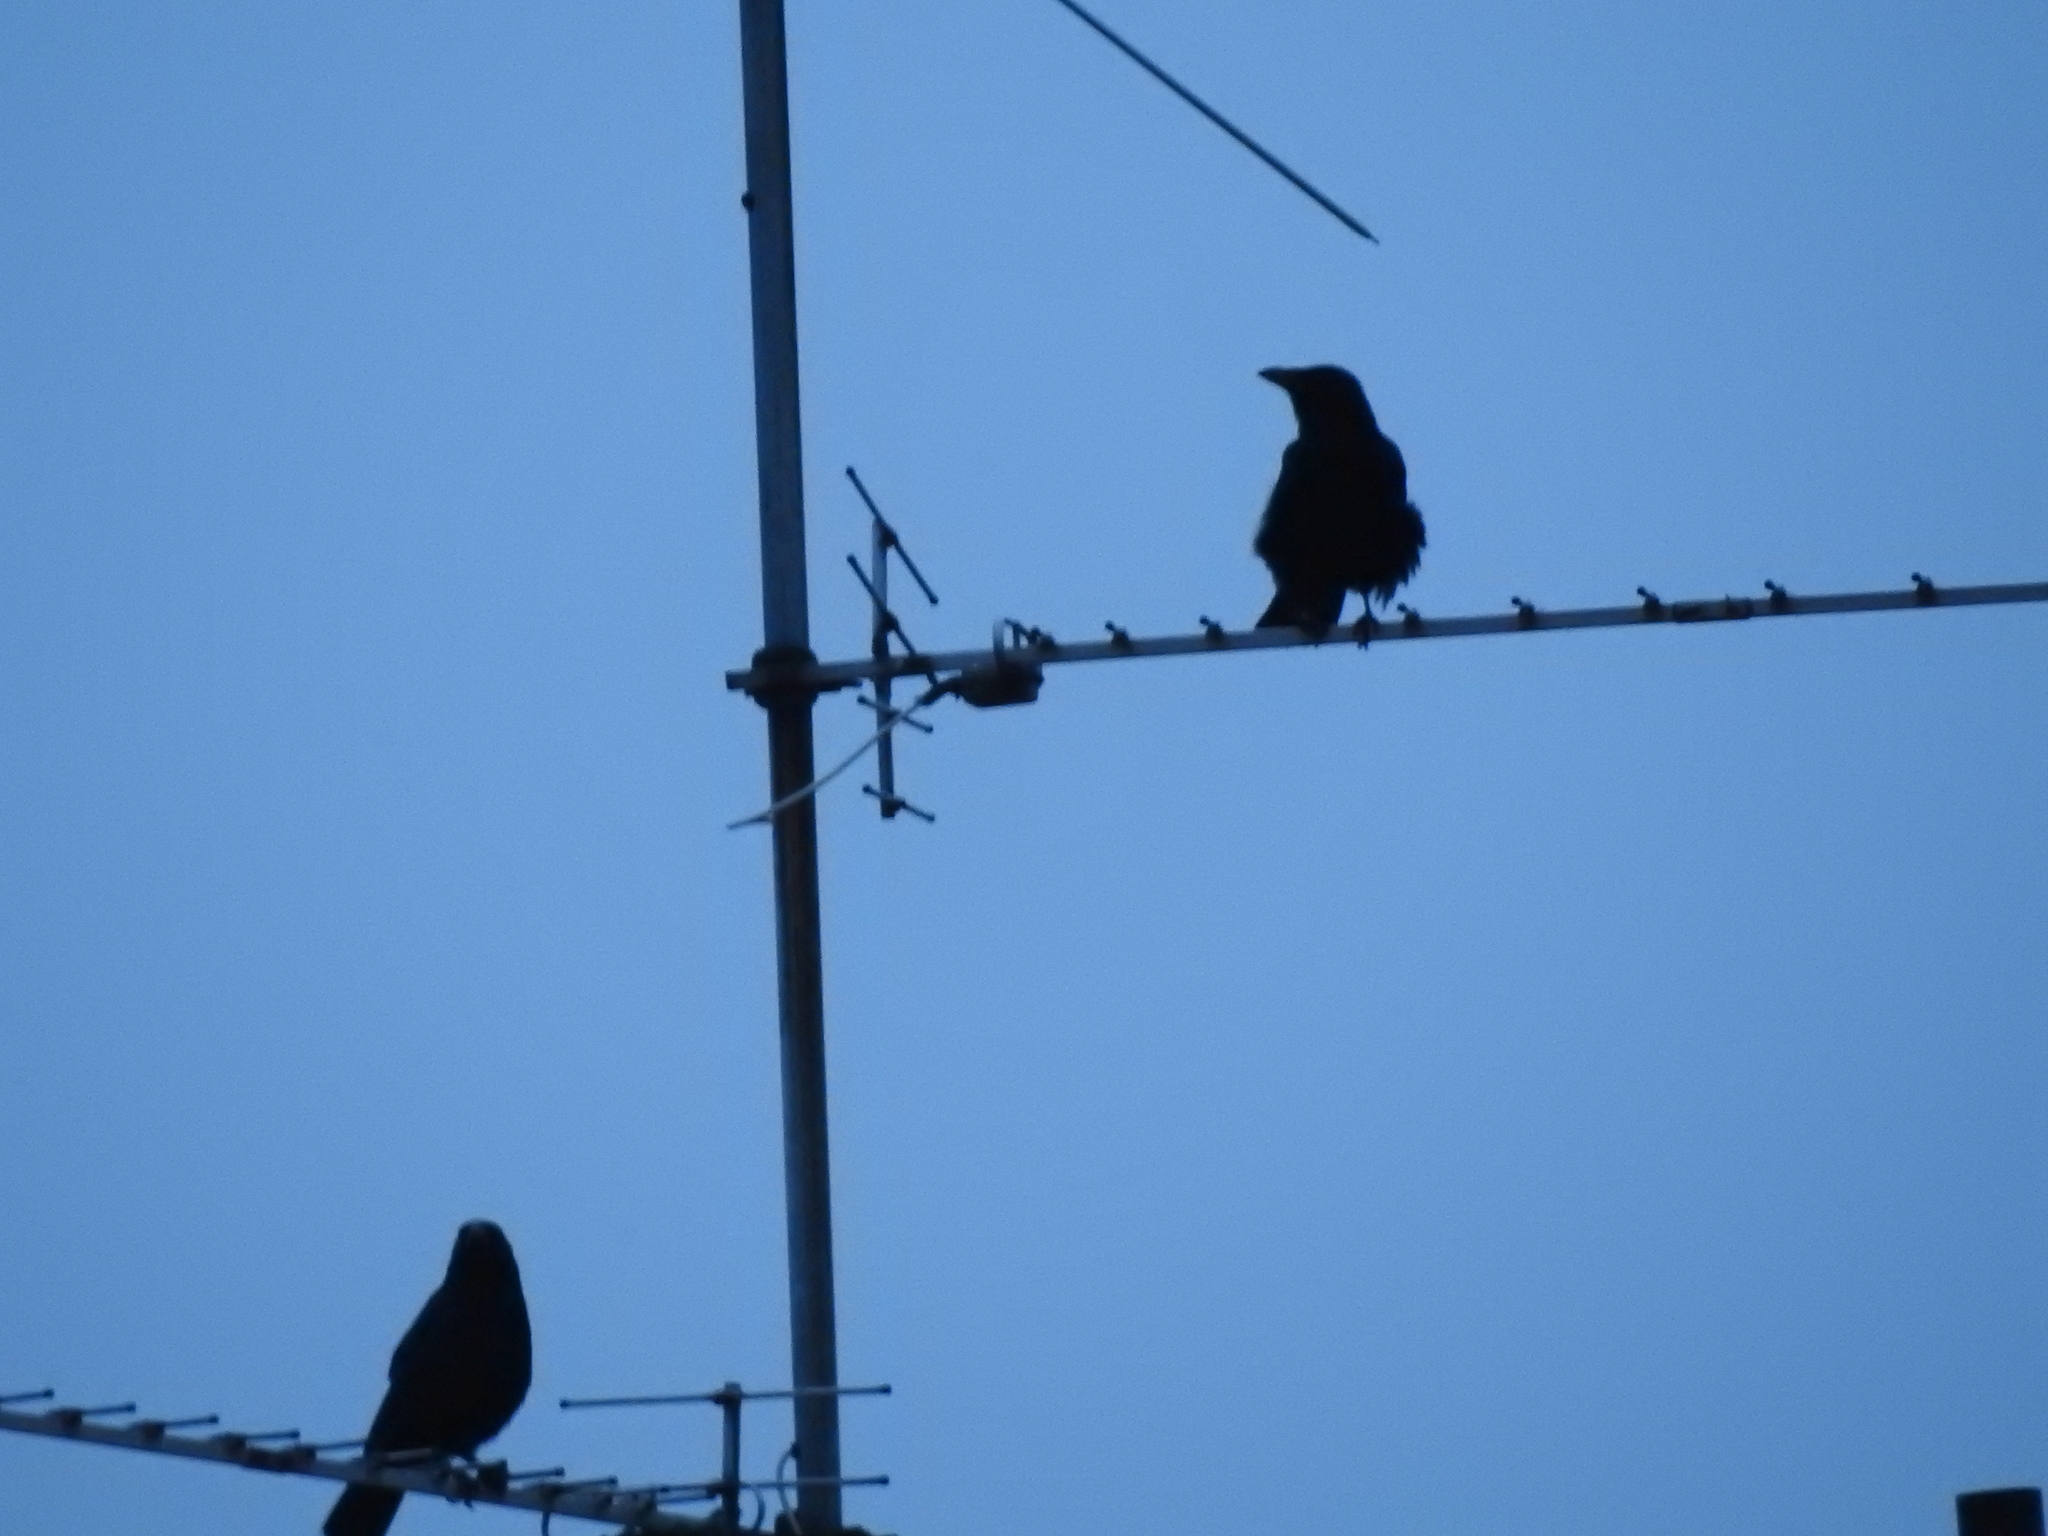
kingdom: Animalia
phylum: Chordata
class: Aves
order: Passeriformes
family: Corvidae
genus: Corvus
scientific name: Corvus corone
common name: Carrion crow
